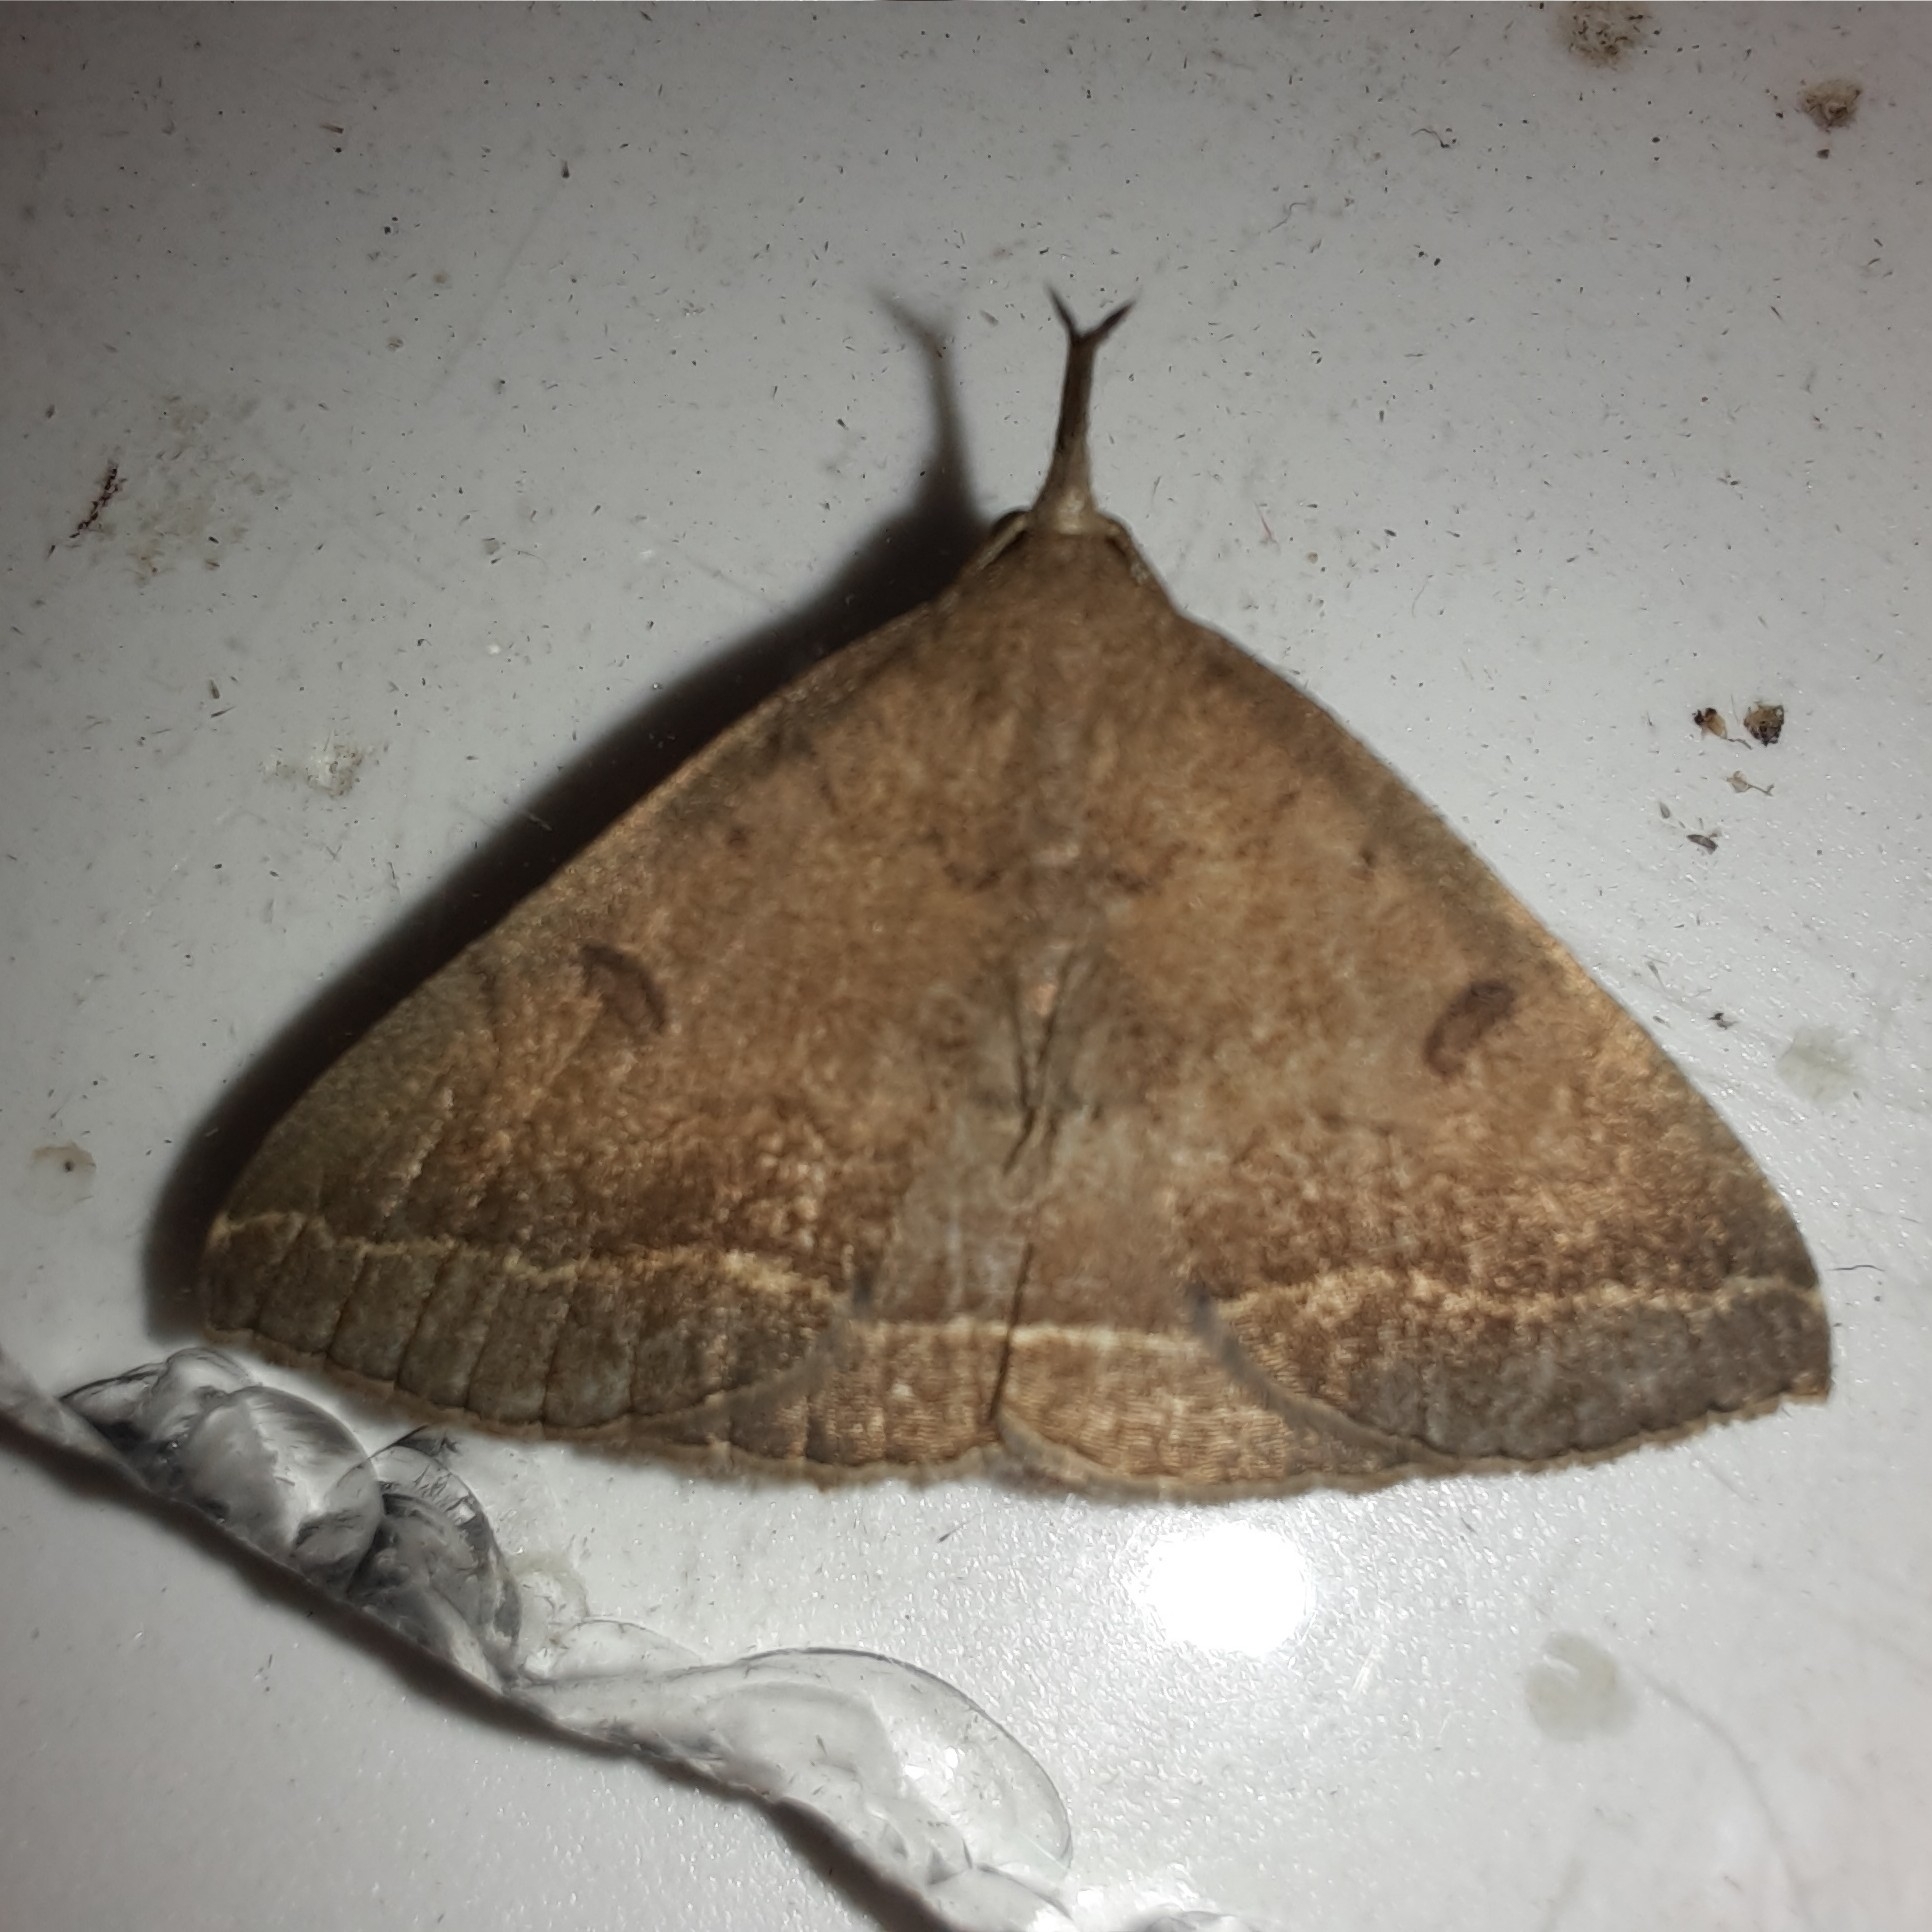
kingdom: Animalia
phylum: Arthropoda
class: Insecta
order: Lepidoptera
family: Erebidae
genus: Pechipogo
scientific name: Pechipogo plumigeralis
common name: Plumed fan-foot
